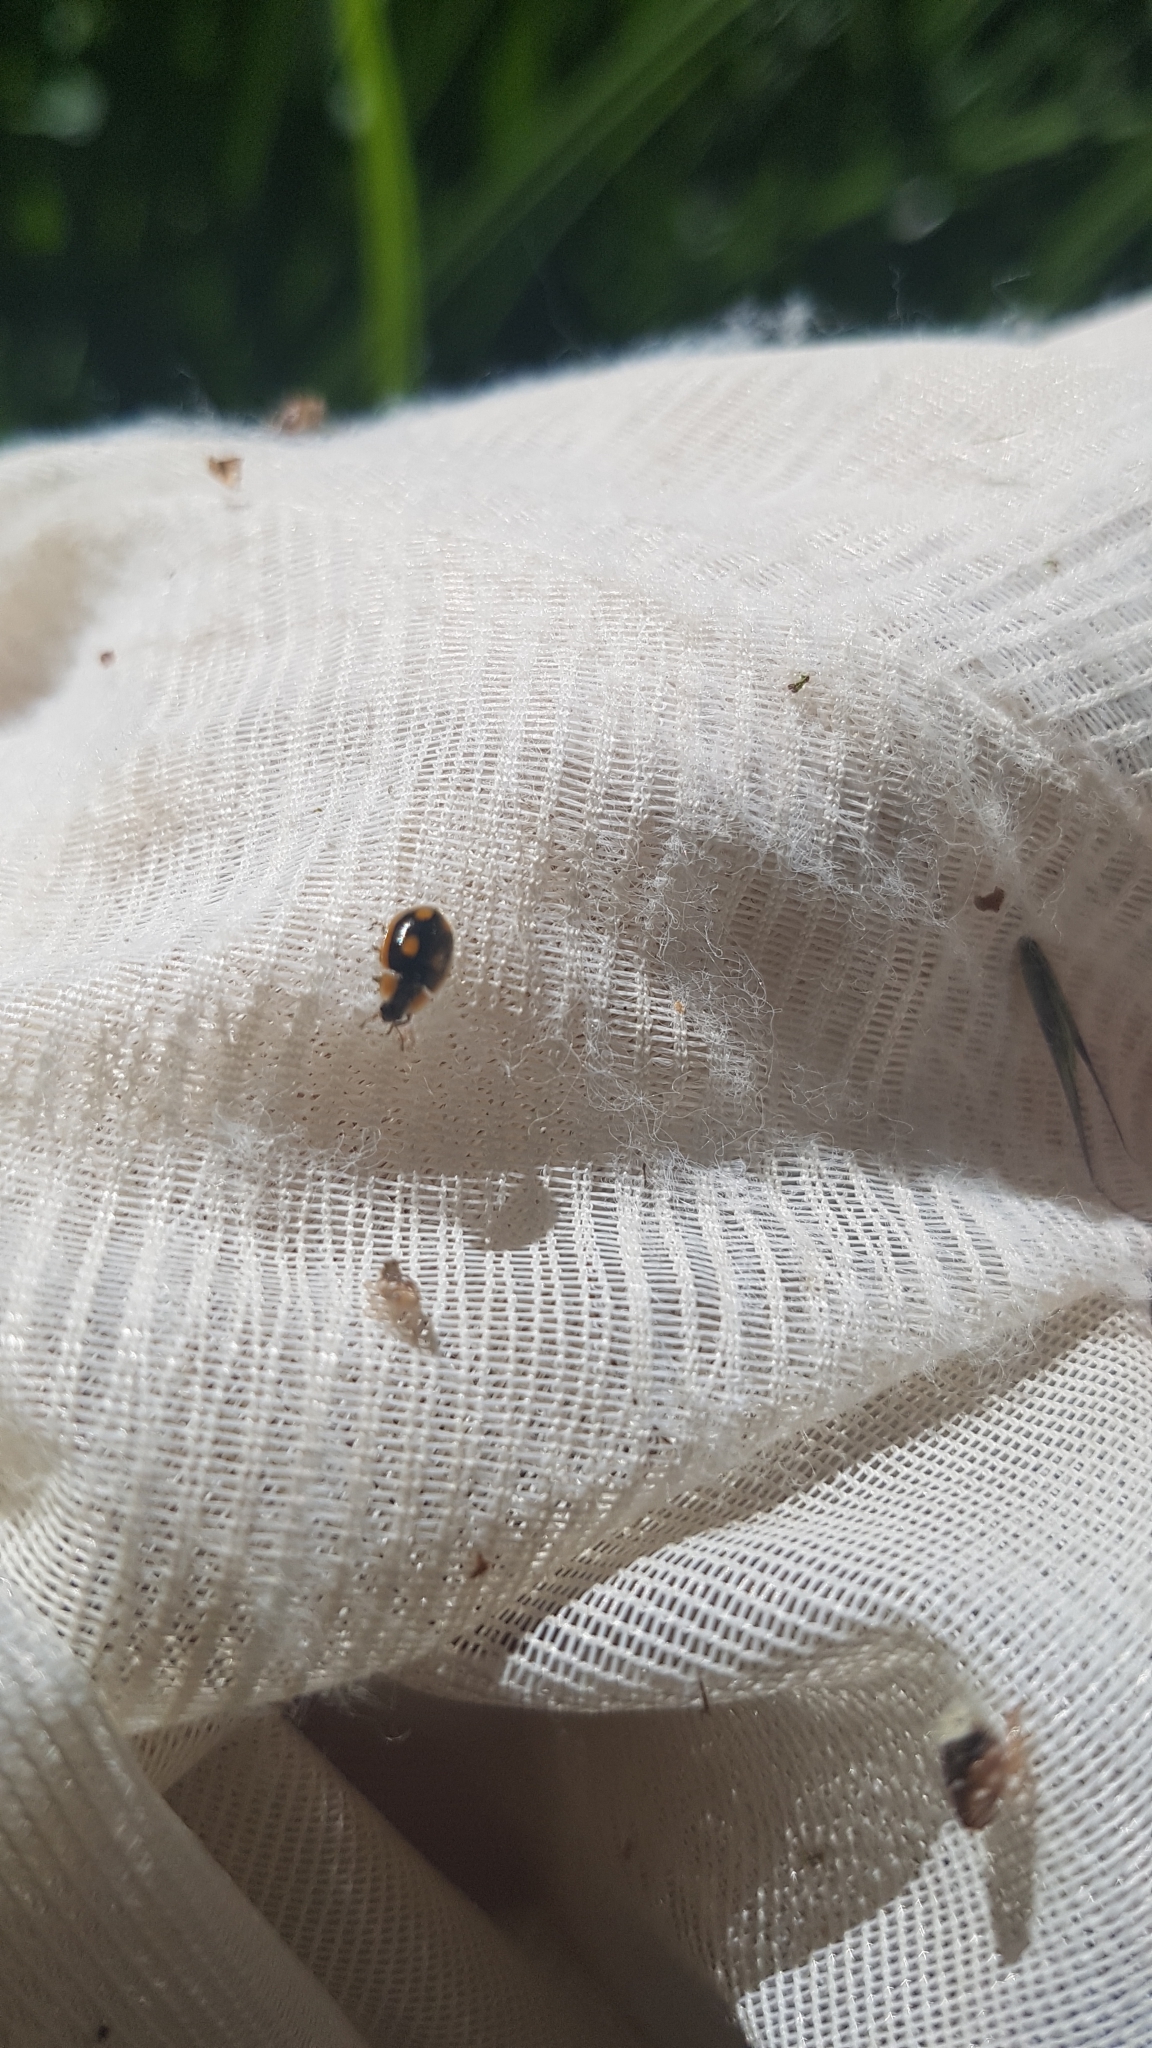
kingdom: Animalia
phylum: Arthropoda
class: Insecta
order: Coleoptera
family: Coccinellidae
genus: Hoangus
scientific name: Hoangus
